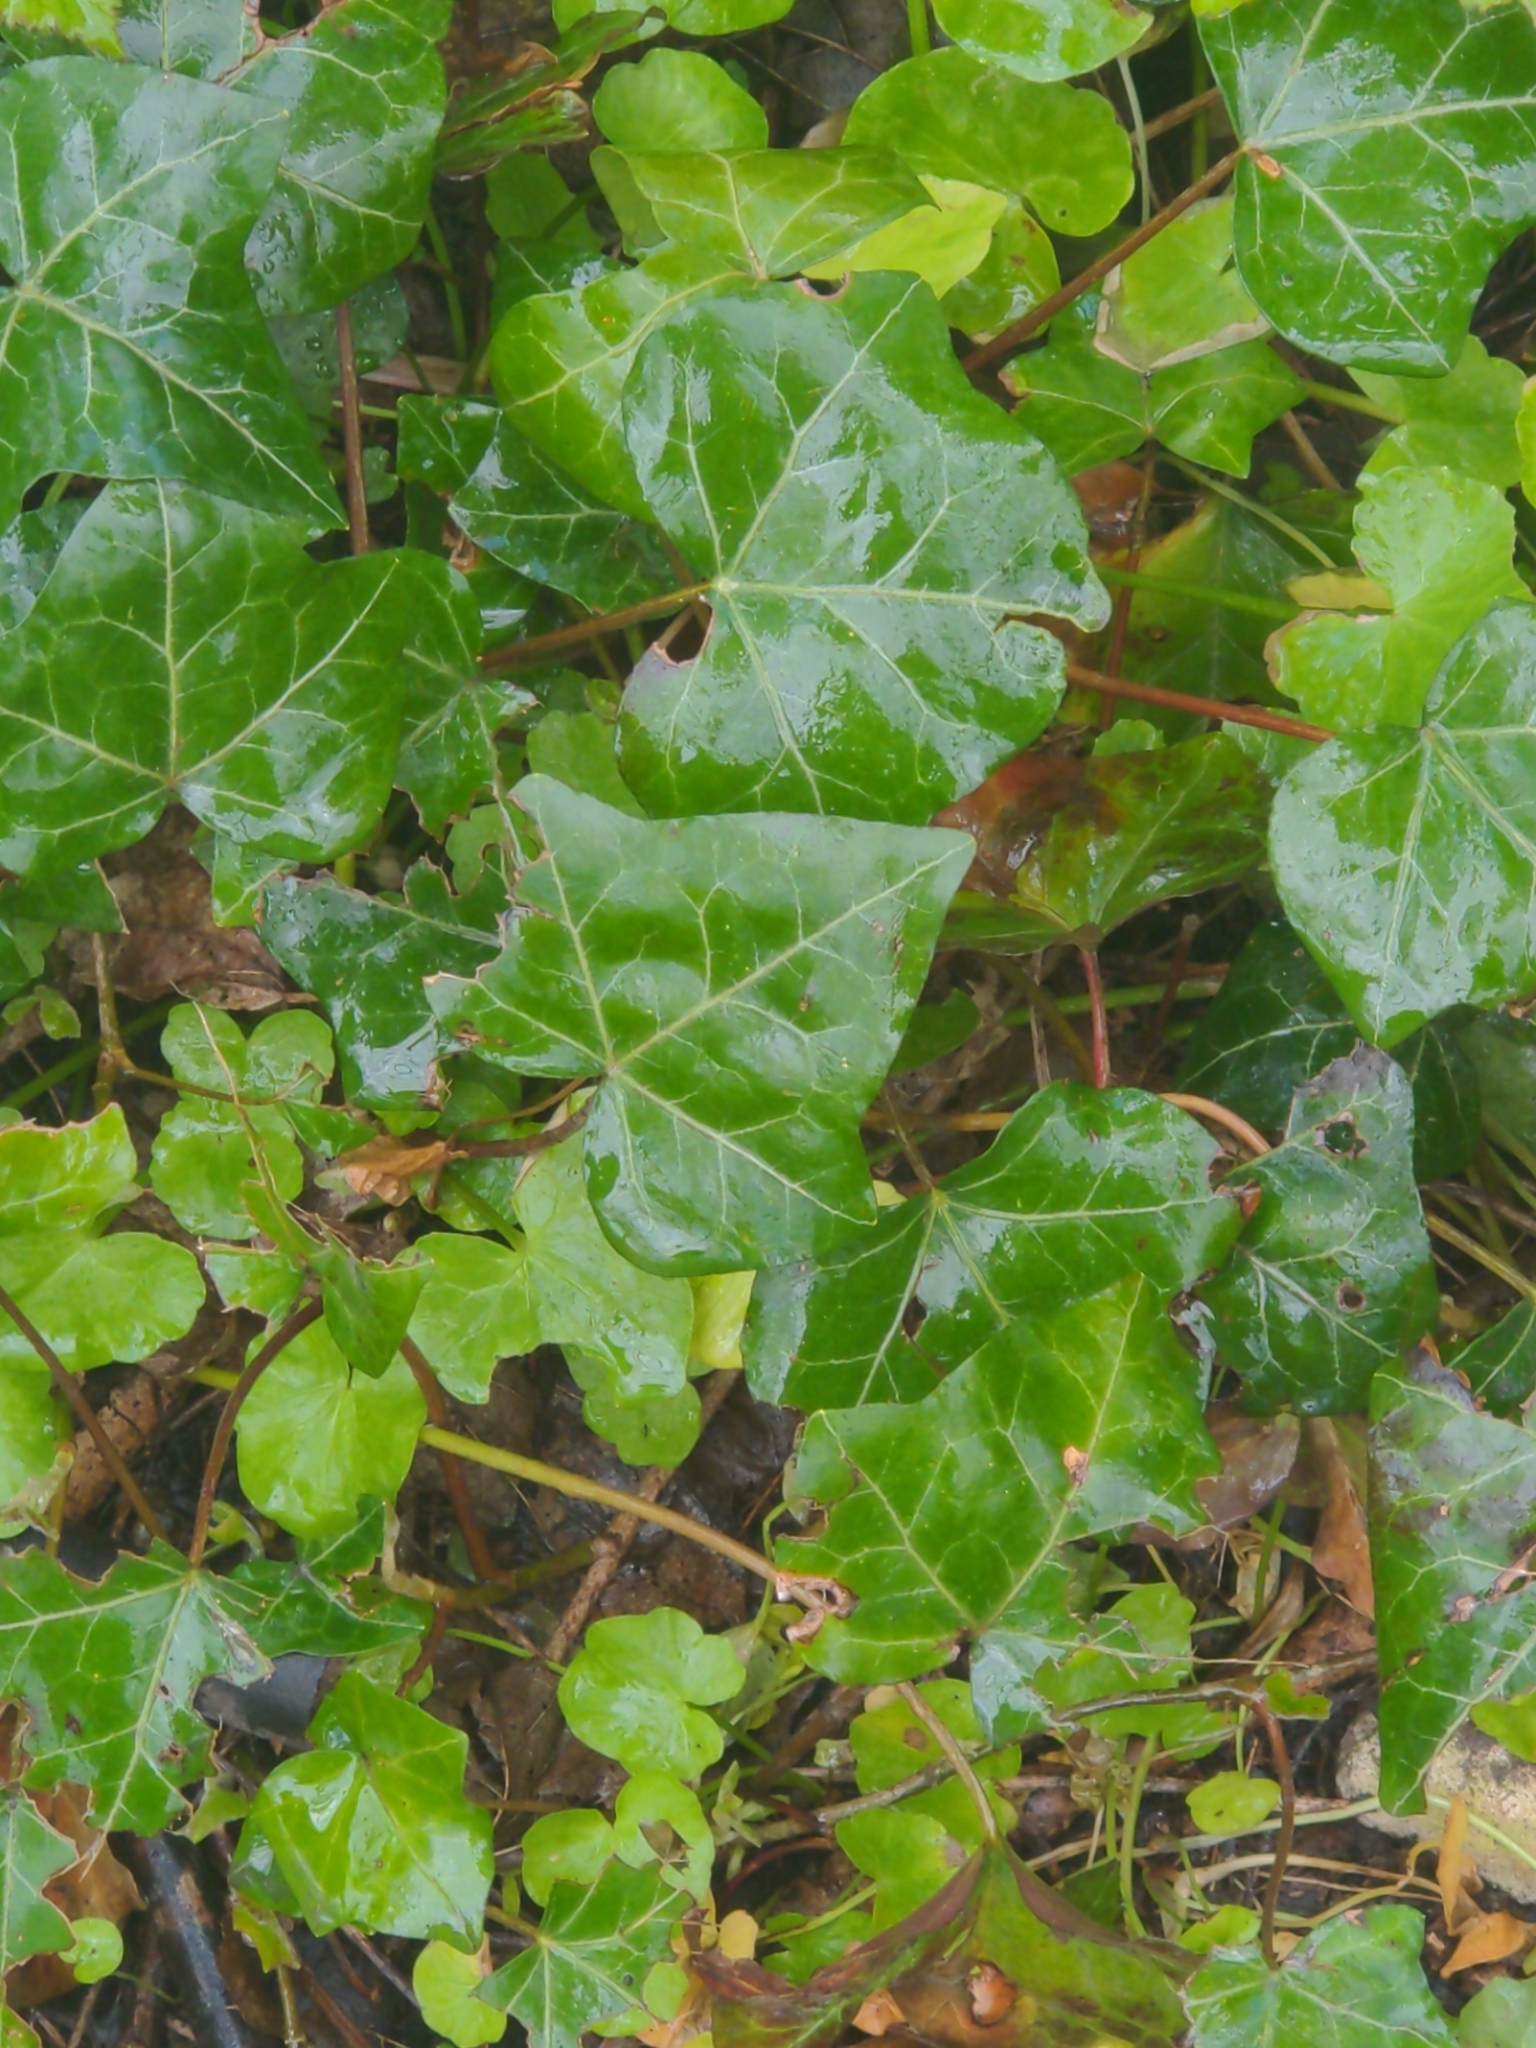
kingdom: Plantae
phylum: Tracheophyta
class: Magnoliopsida
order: Apiales
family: Araliaceae
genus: Hedera
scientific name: Hedera helix
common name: Ivy
